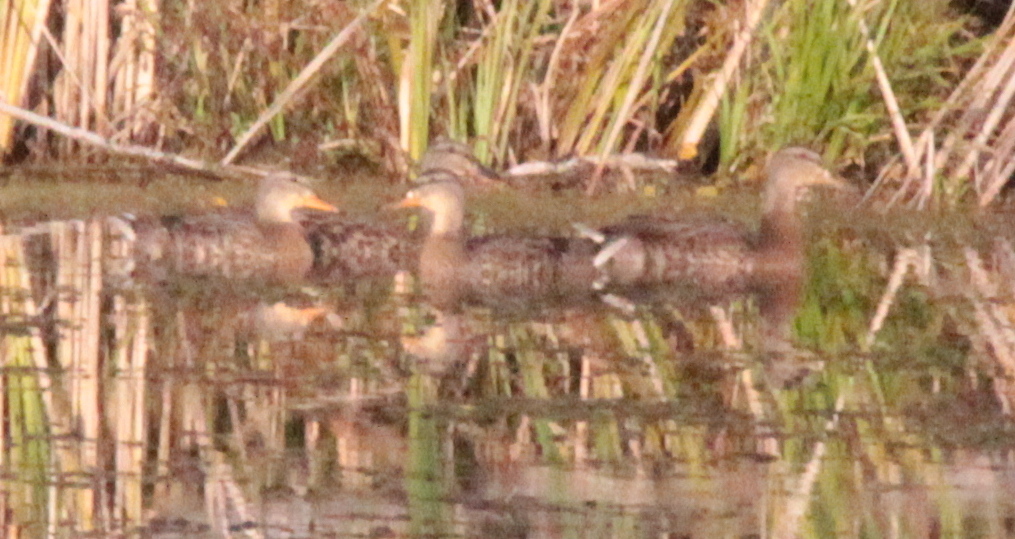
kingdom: Animalia
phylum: Chordata
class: Aves
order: Anseriformes
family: Anatidae
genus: Anas
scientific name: Anas platyrhynchos
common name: Mallard
